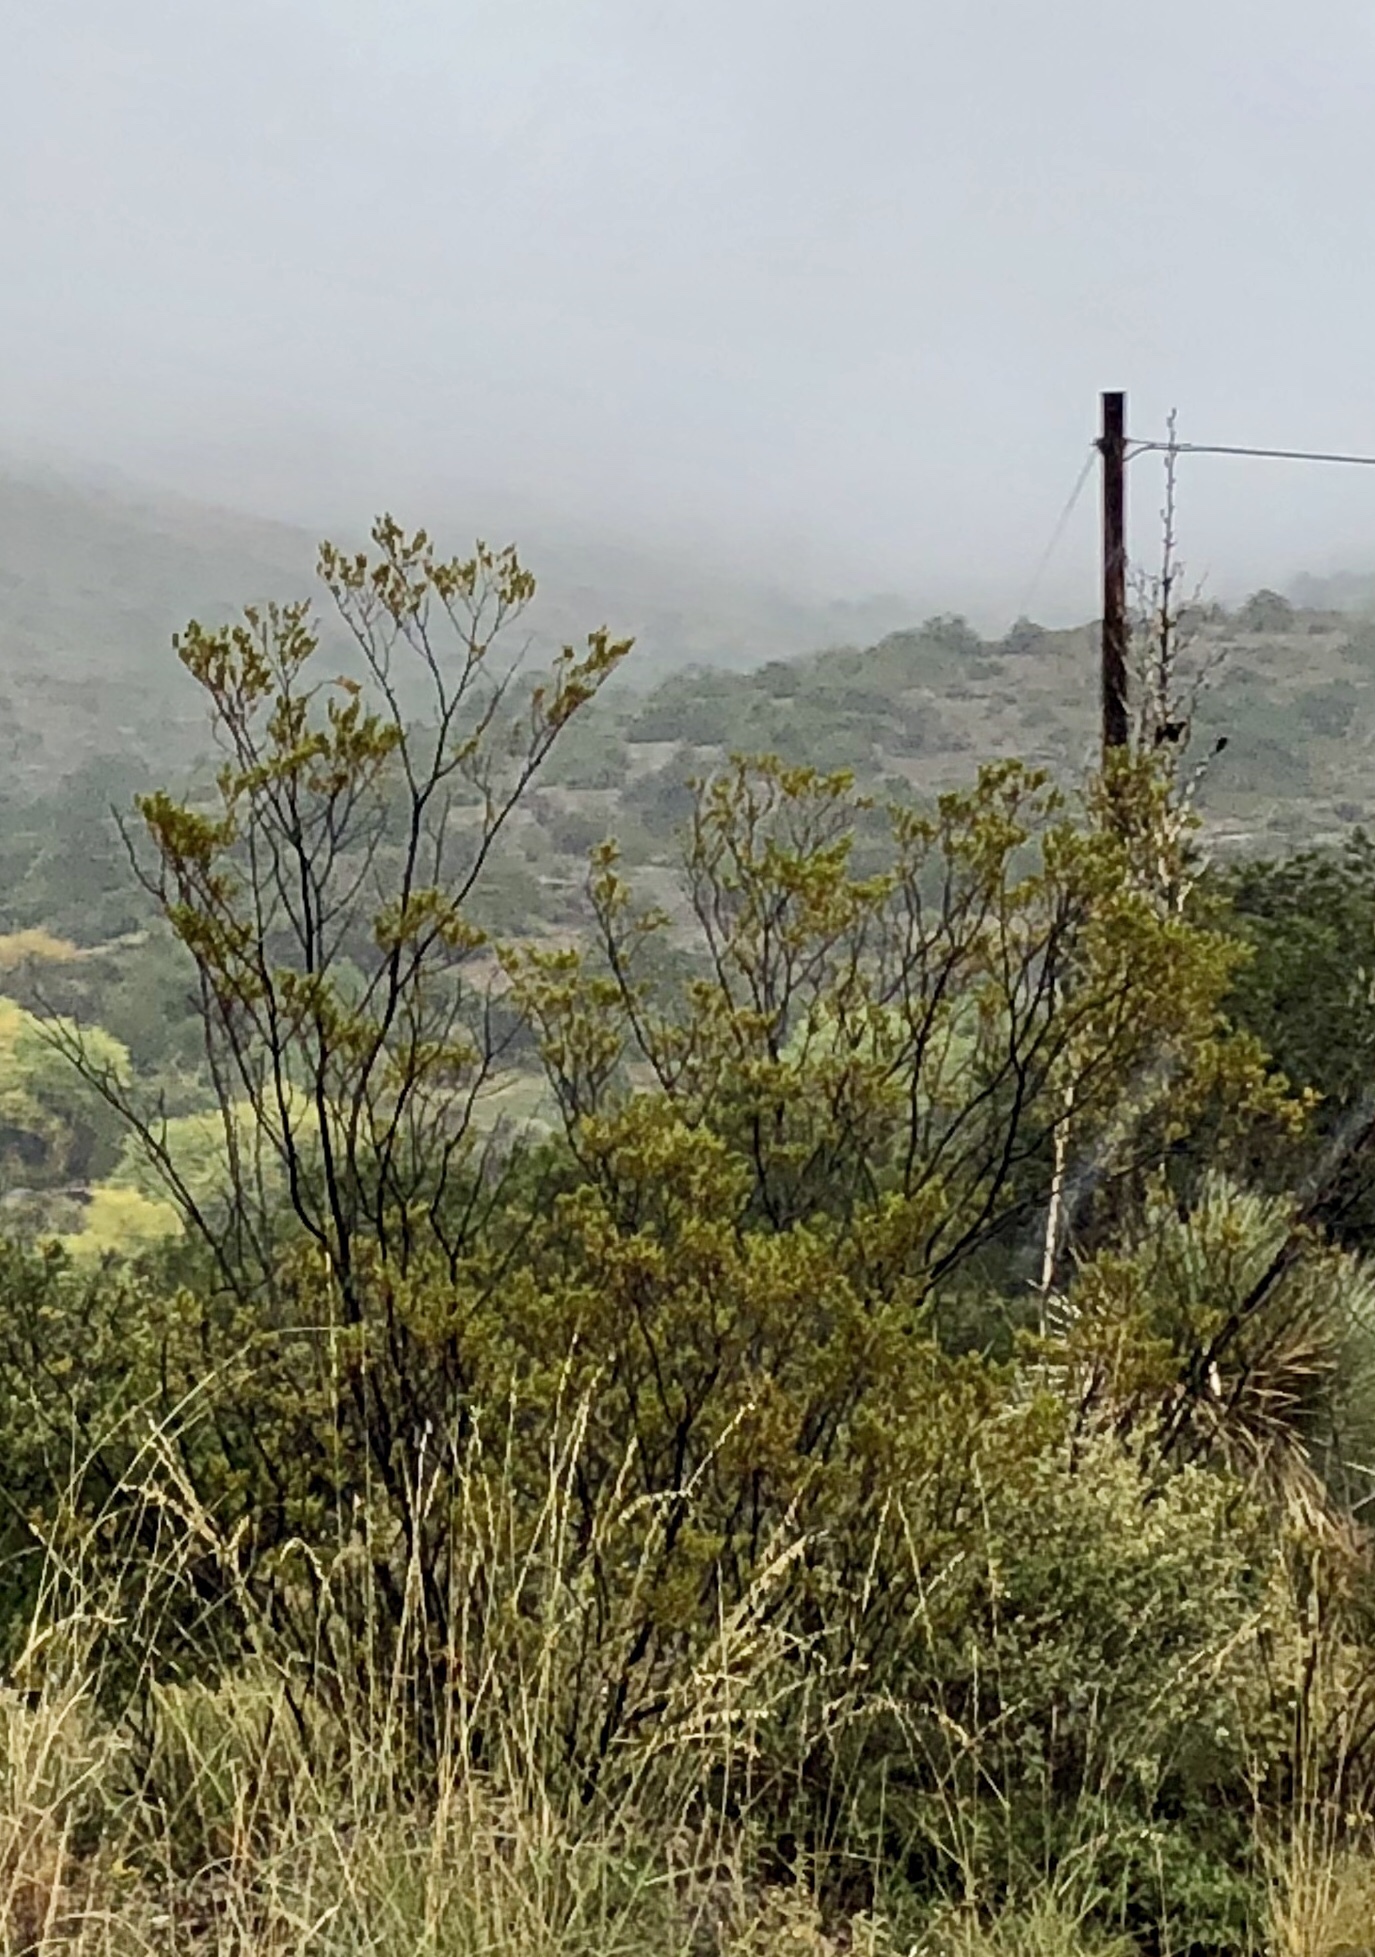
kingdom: Plantae
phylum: Tracheophyta
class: Magnoliopsida
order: Zygophyllales
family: Zygophyllaceae
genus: Larrea
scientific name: Larrea tridentata
